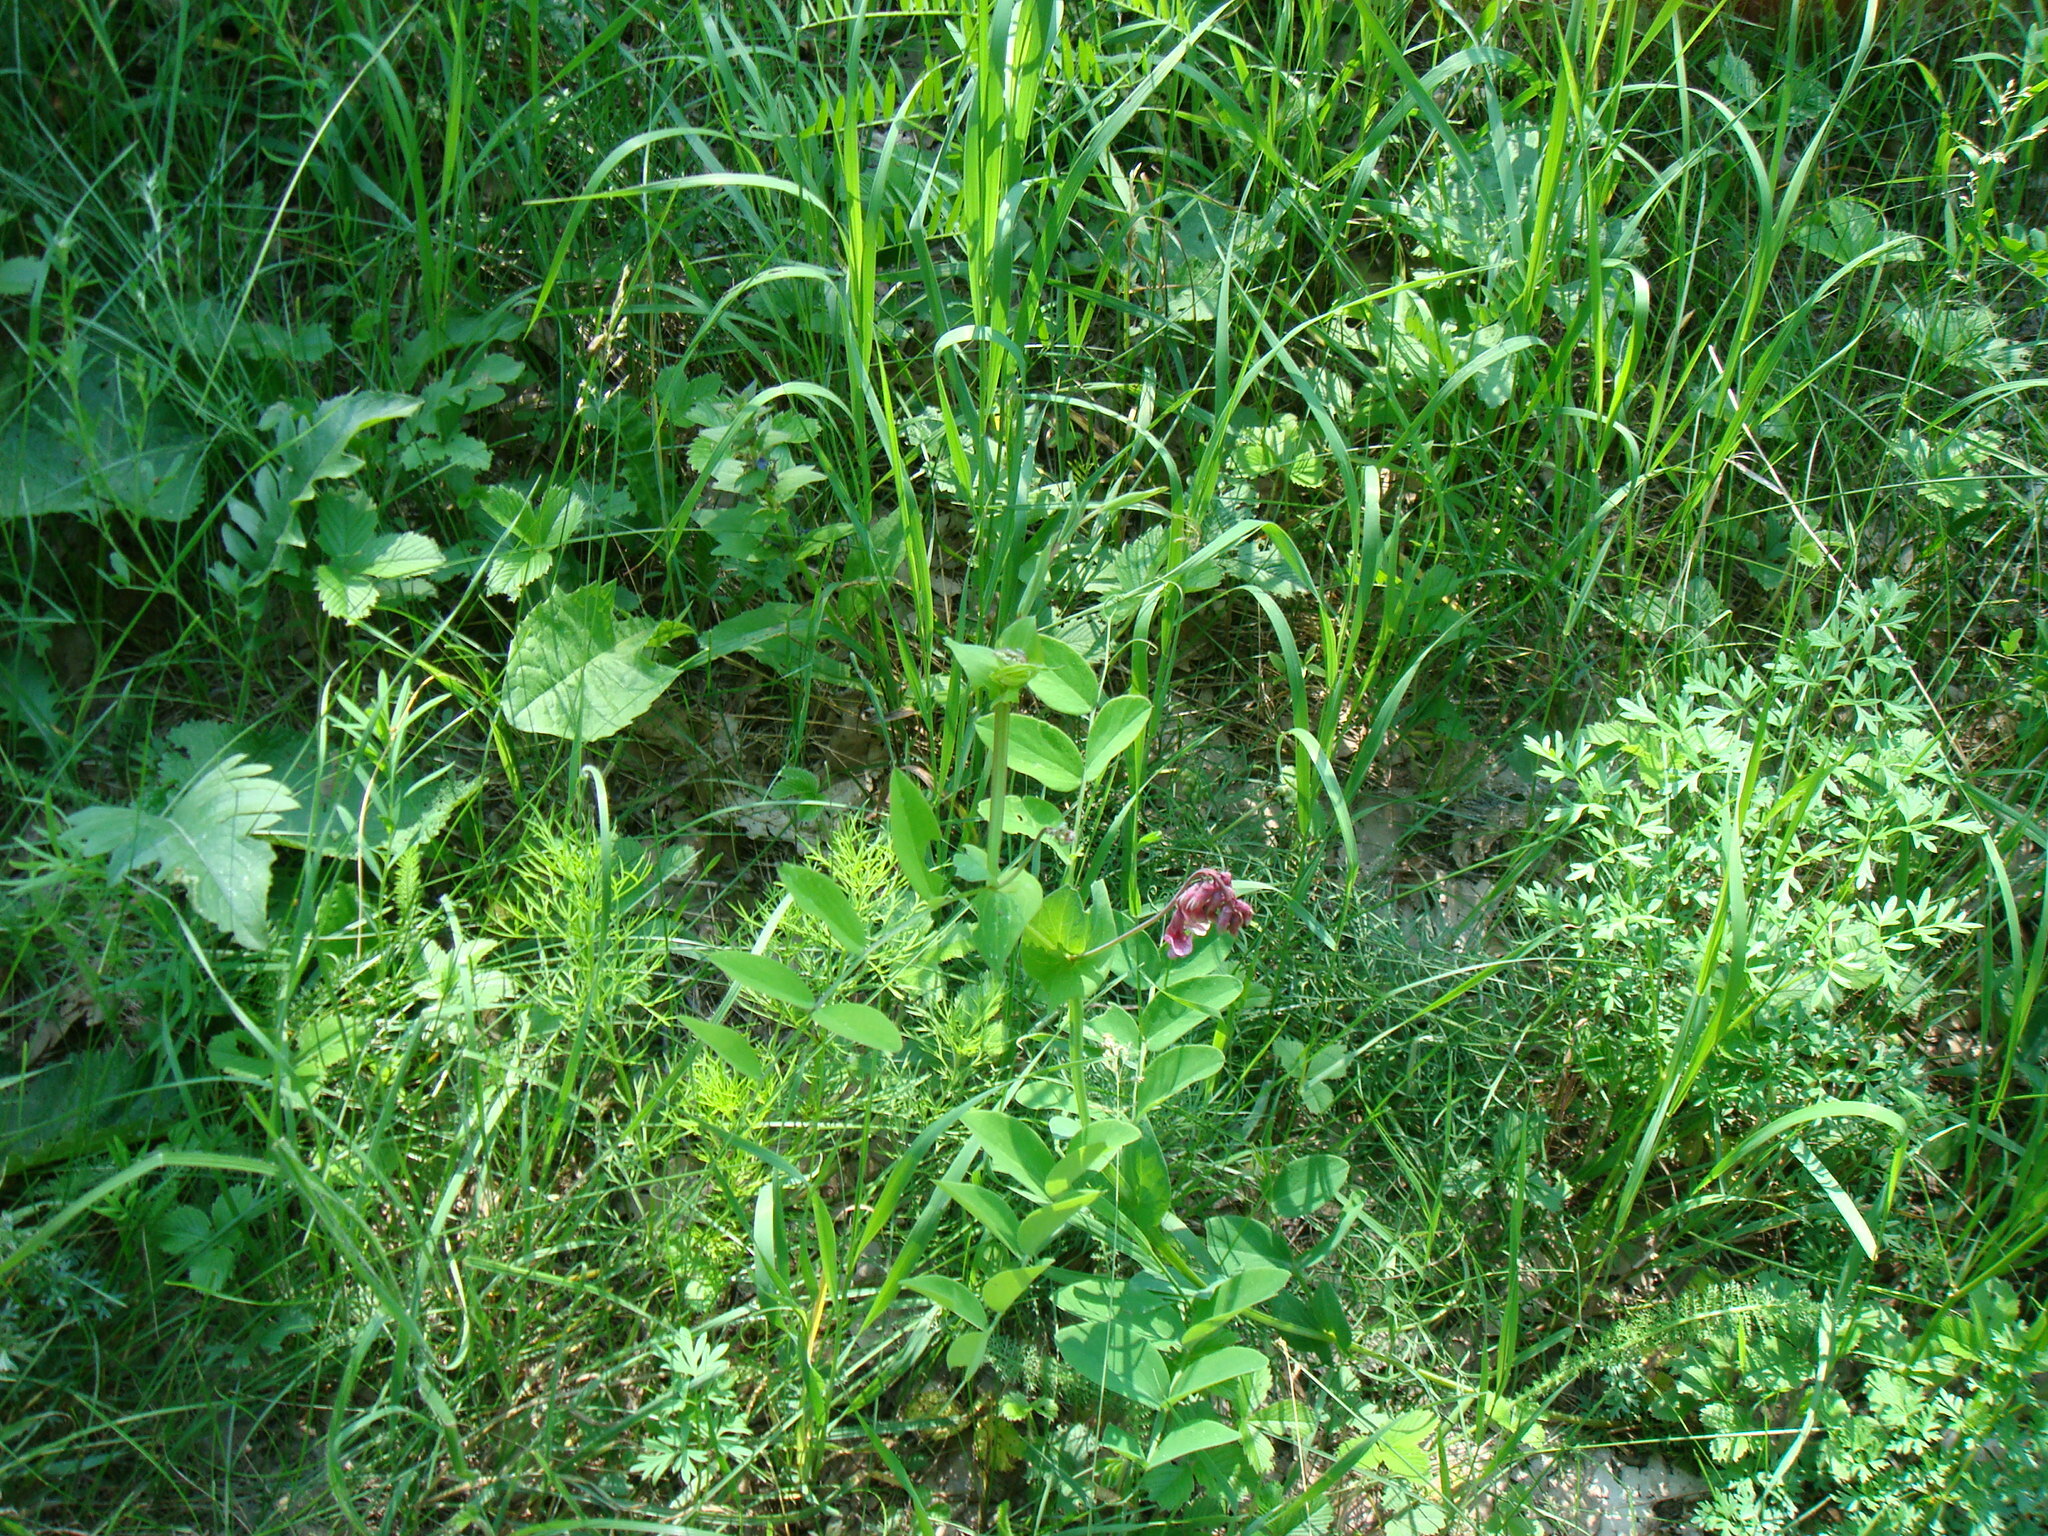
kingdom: Plantae
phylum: Tracheophyta
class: Magnoliopsida
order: Fabales
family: Fabaceae
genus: Lathyrus
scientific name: Lathyrus pisiformis
